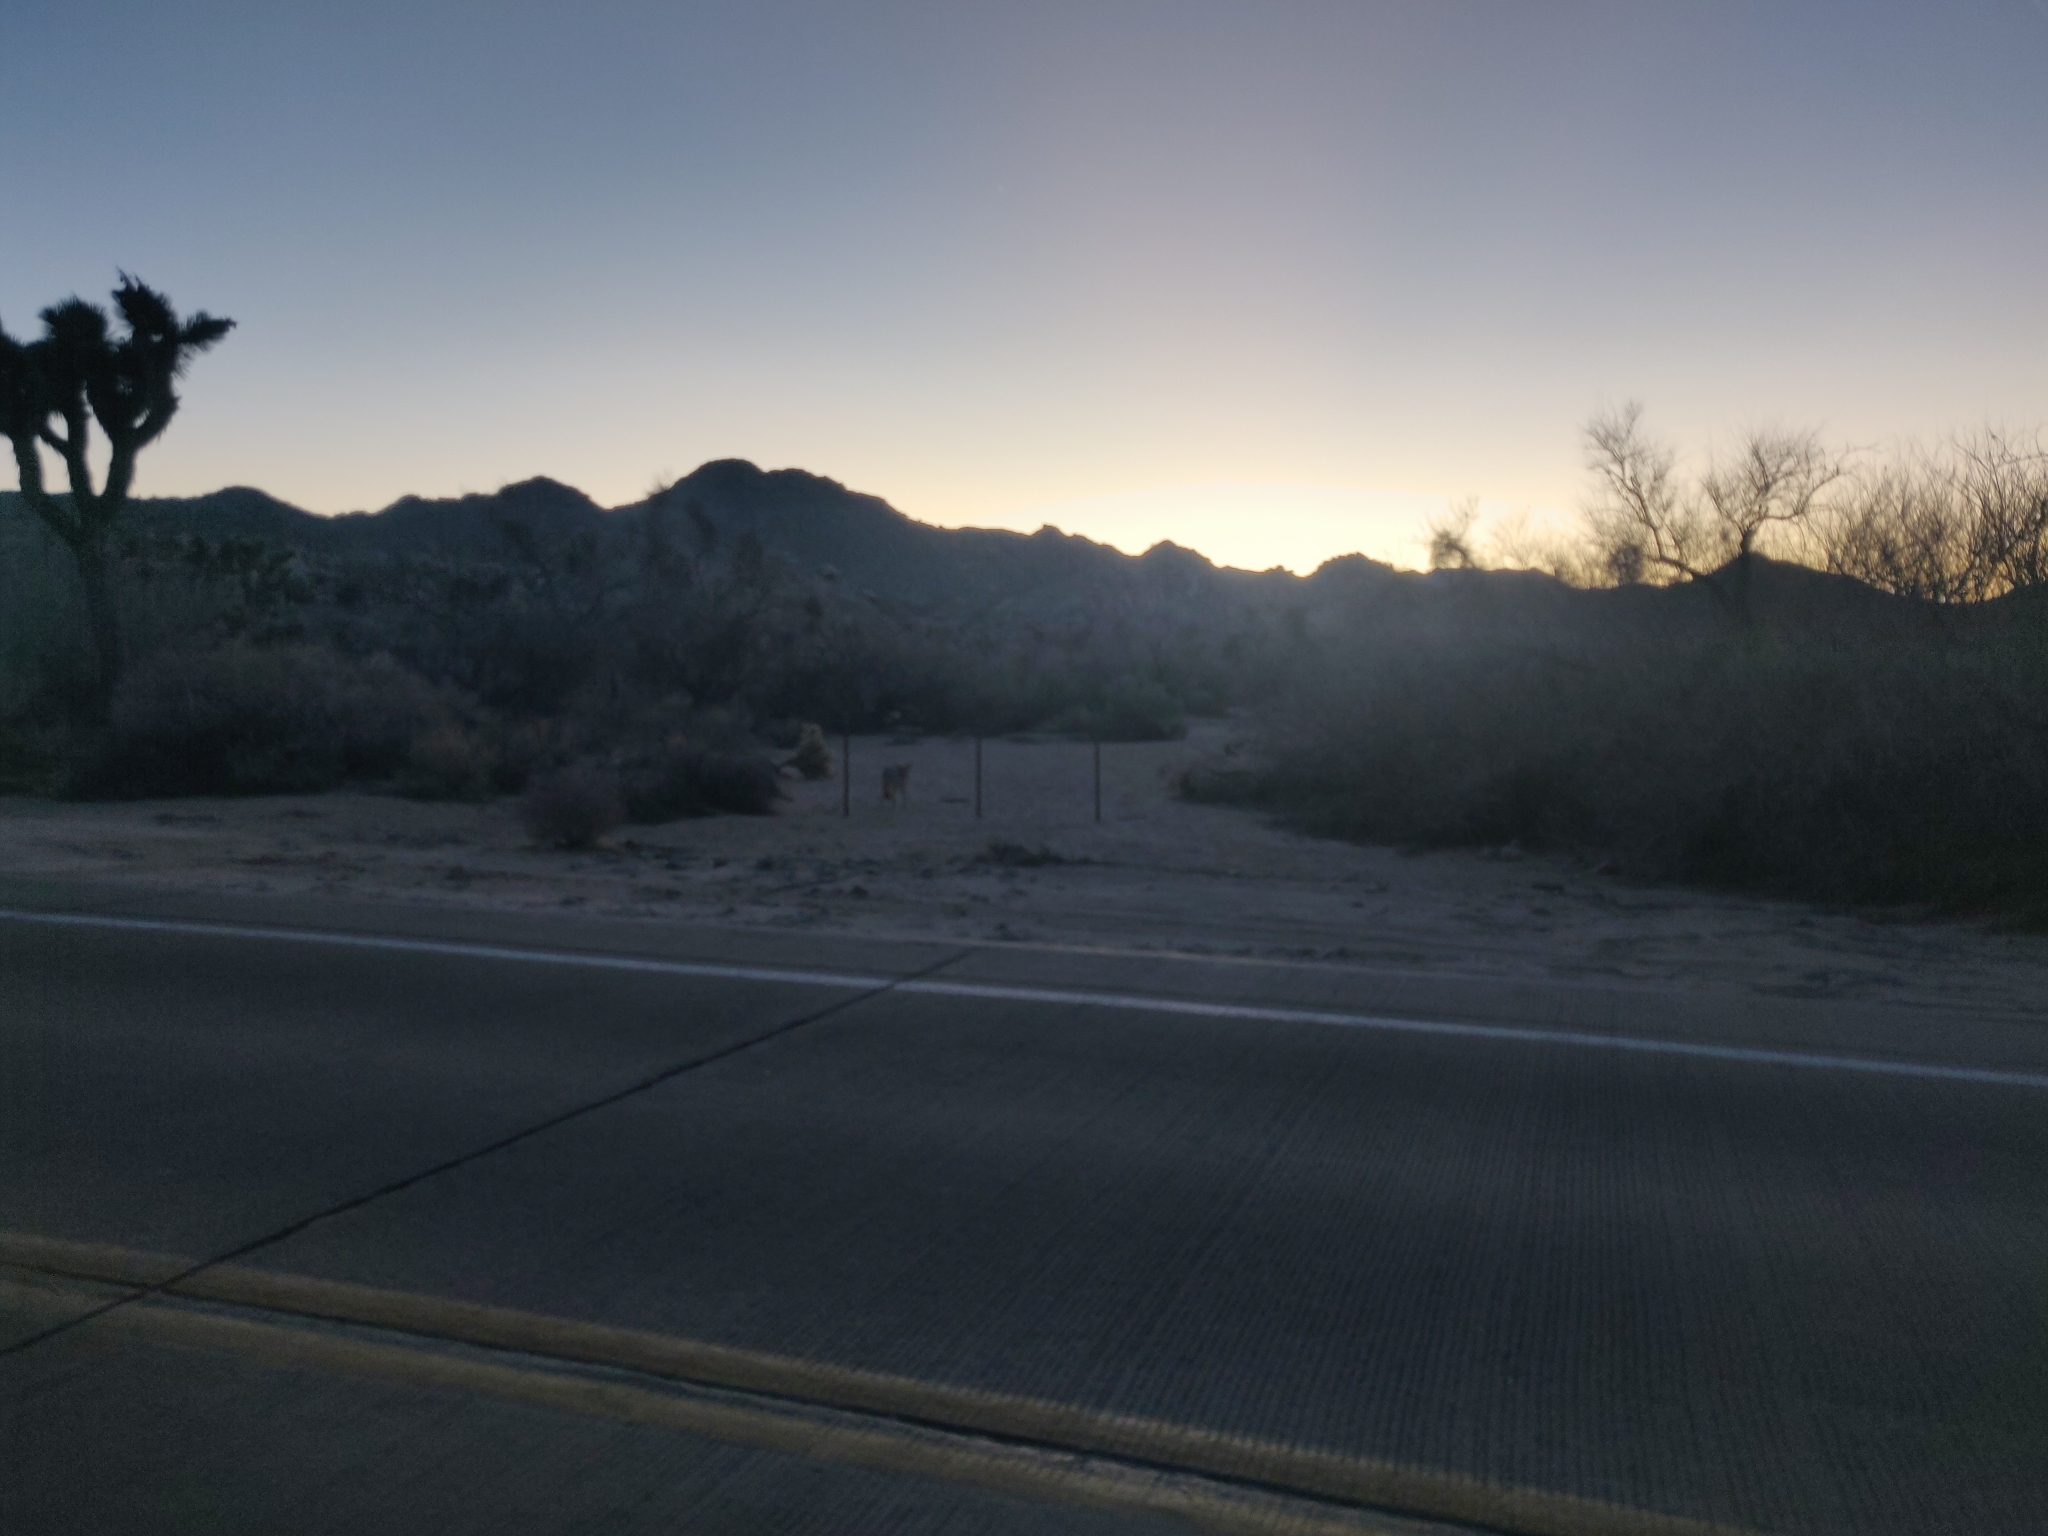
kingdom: Animalia
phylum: Chordata
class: Mammalia
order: Carnivora
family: Canidae
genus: Canis
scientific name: Canis latrans
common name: Coyote
